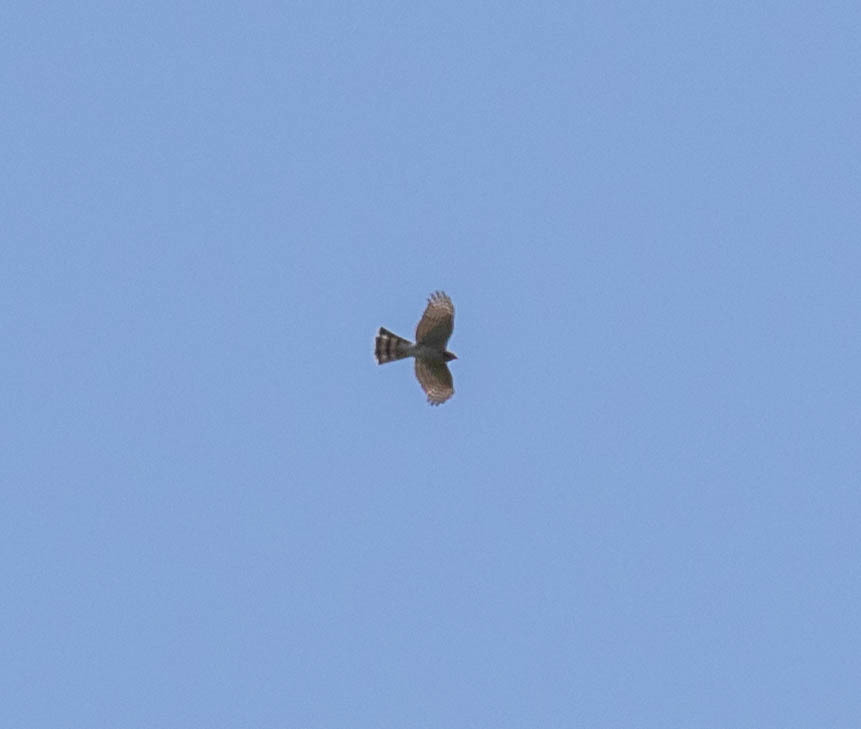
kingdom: Animalia
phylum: Chordata
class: Aves
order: Accipitriformes
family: Accipitridae
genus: Accipiter
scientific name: Accipiter striatus
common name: Sharp-shinned hawk
